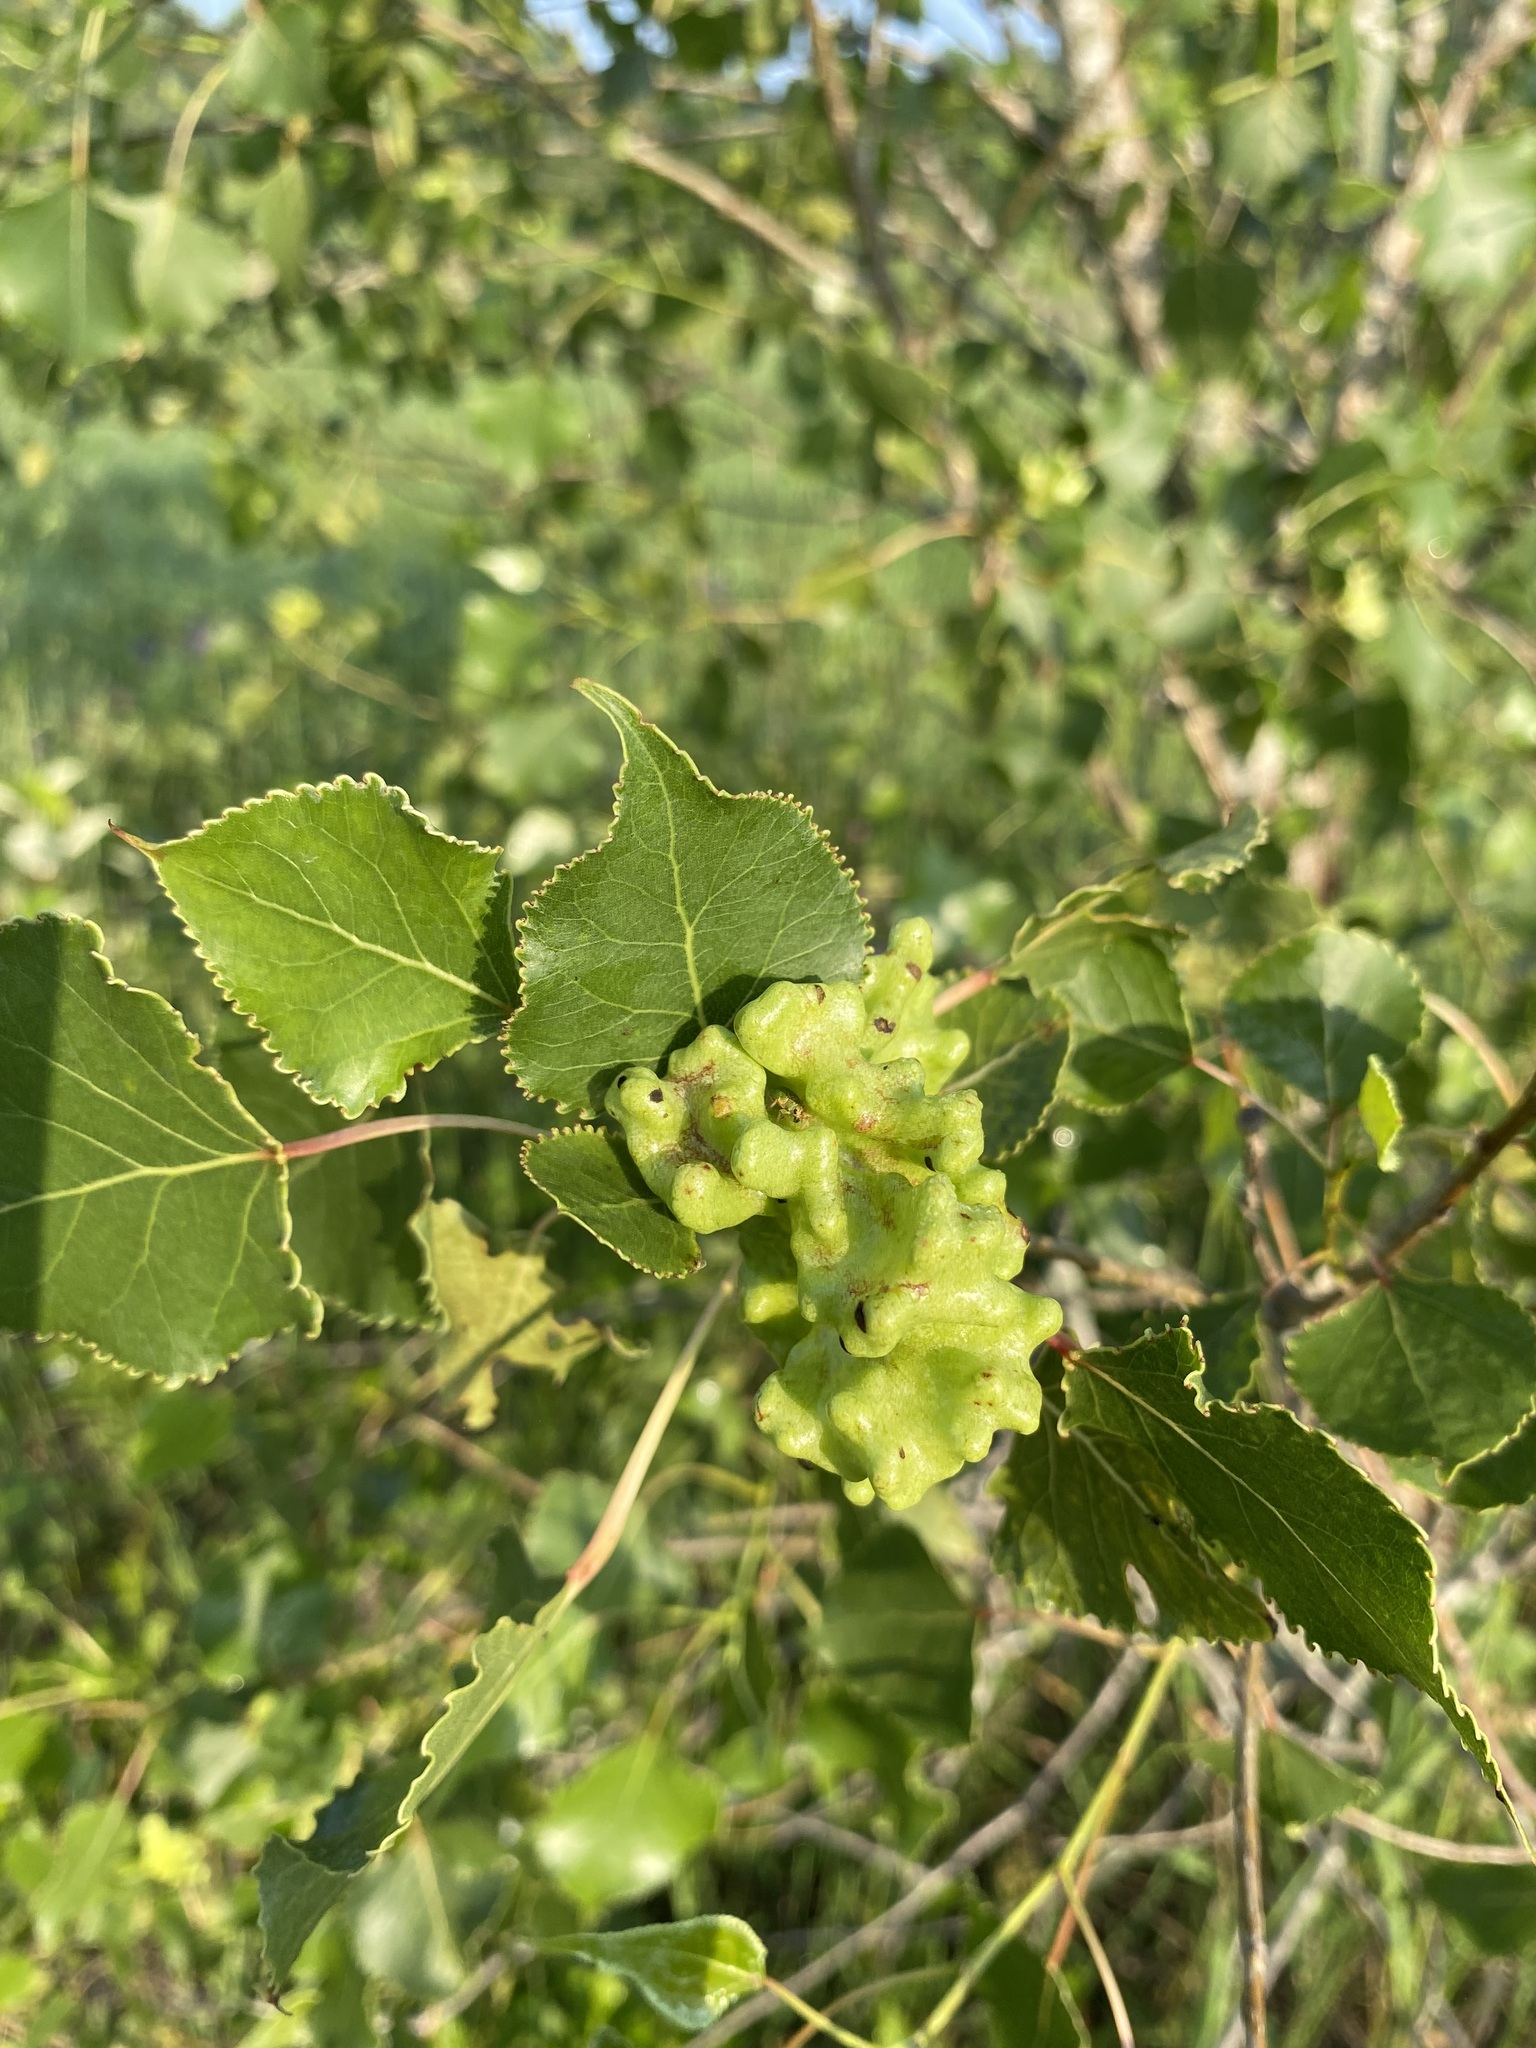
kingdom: Animalia
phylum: Arthropoda
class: Insecta
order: Hemiptera
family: Aphididae
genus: Mordwilkoja
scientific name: Mordwilkoja vagabunda
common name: Poplar vagabond aphid
